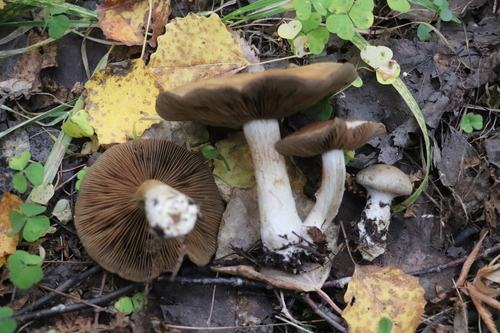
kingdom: Fungi
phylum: Basidiomycota
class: Agaricomycetes
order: Agaricales
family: Cortinariaceae
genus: Thaxterogaster
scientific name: Thaxterogaster porphyropus
